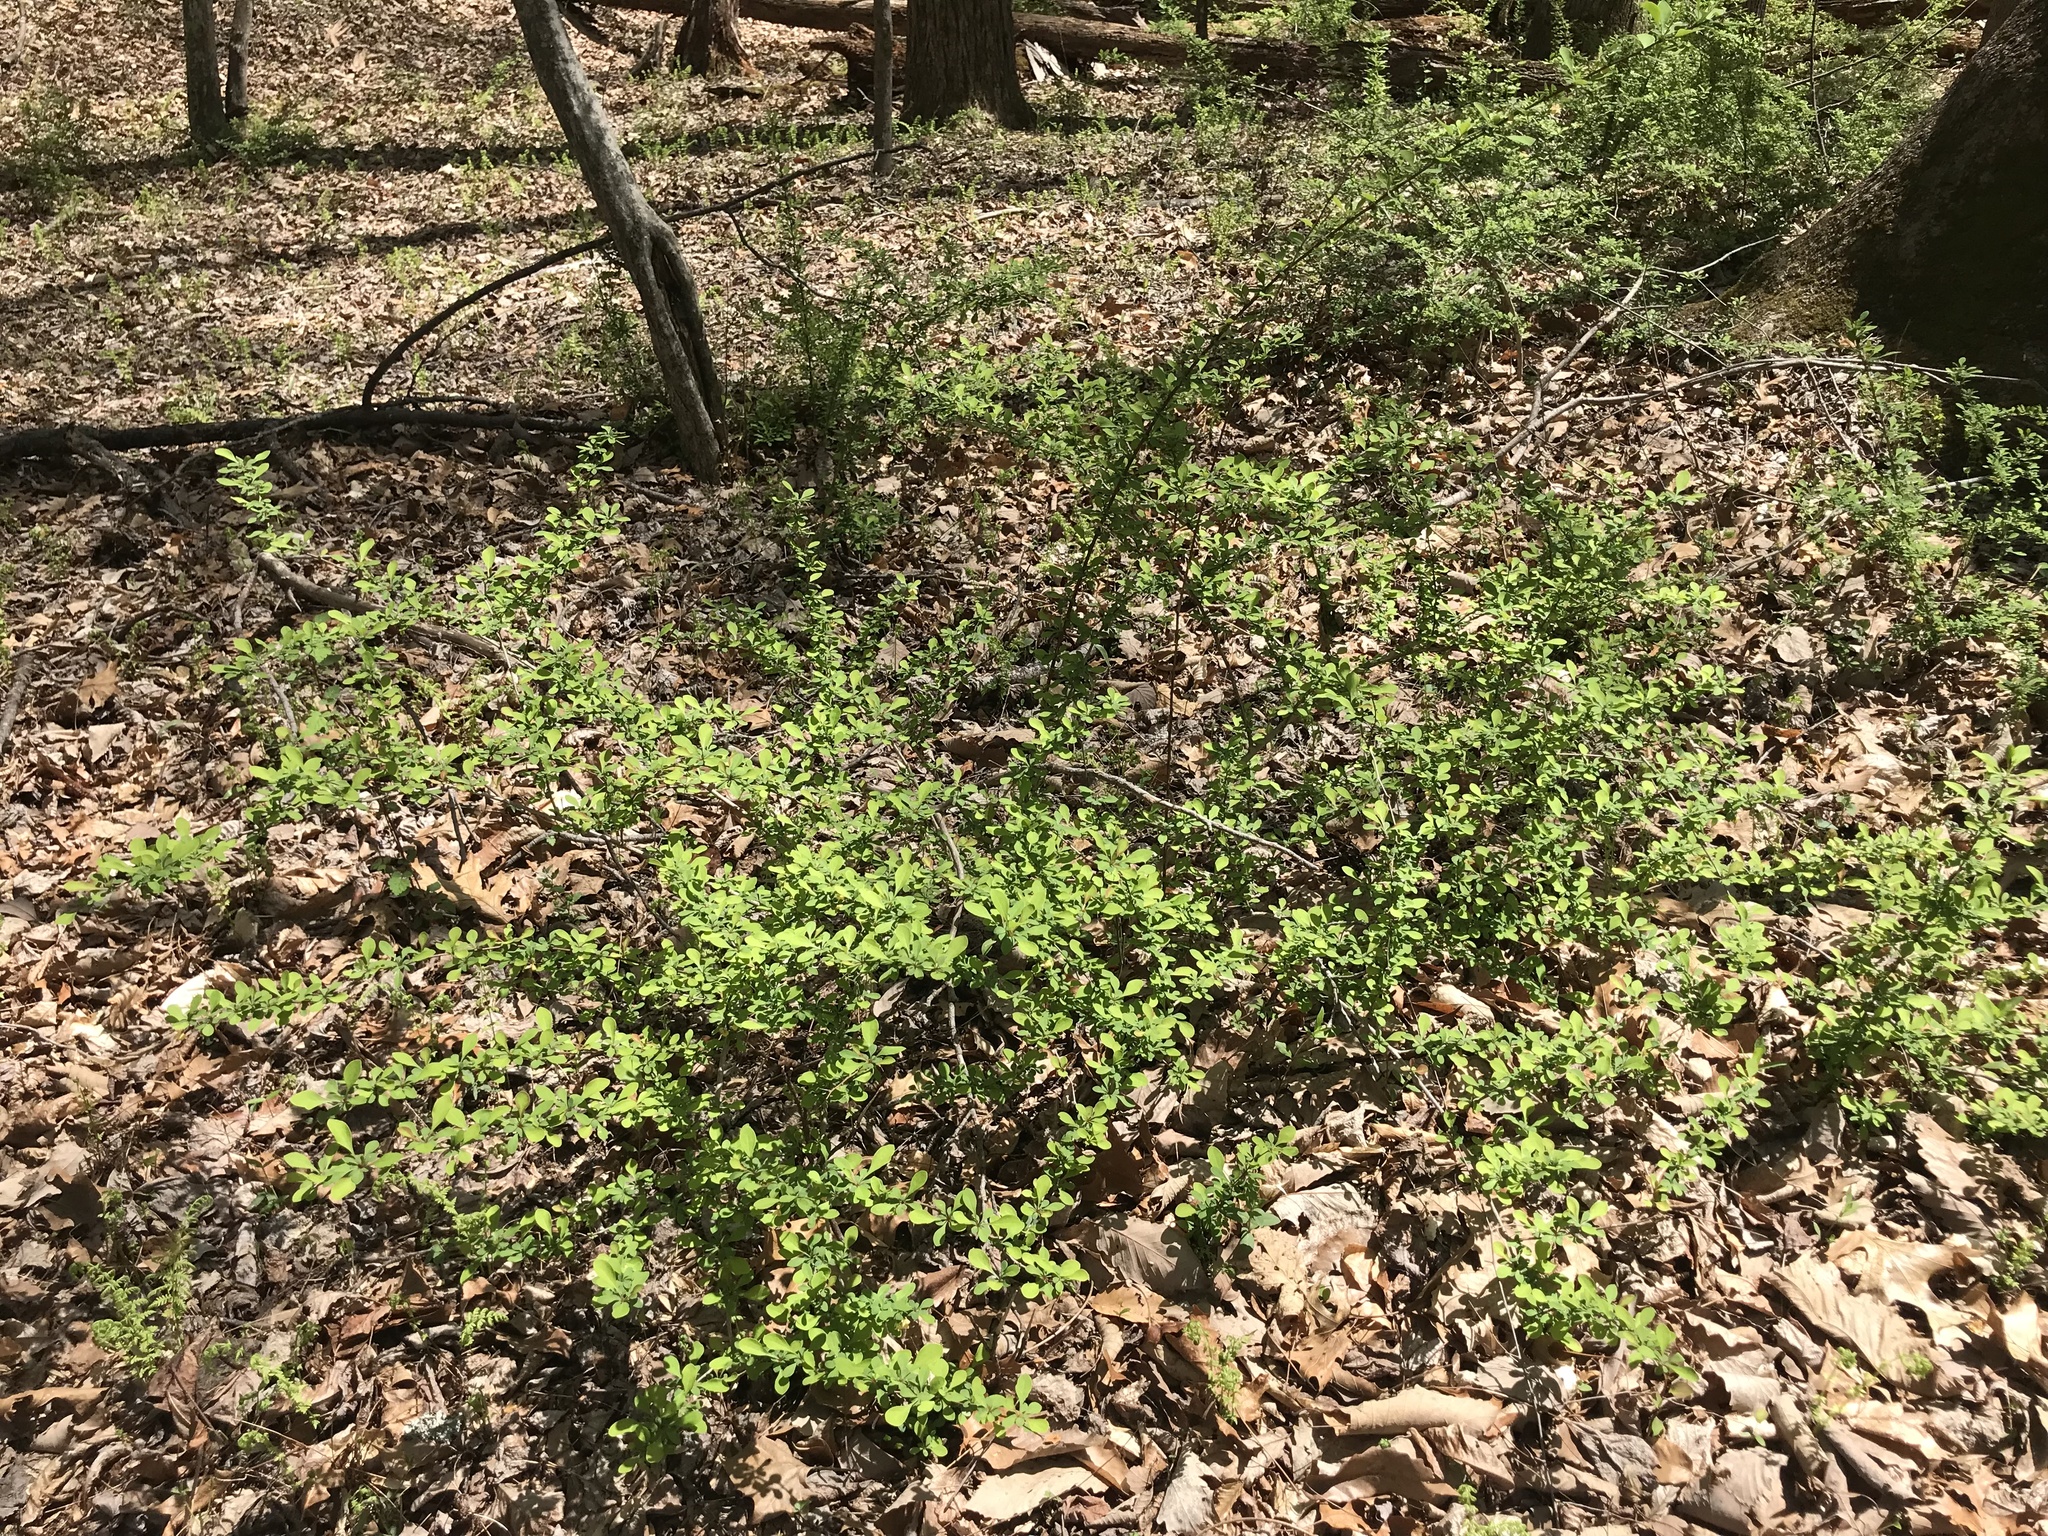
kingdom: Plantae
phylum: Tracheophyta
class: Magnoliopsida
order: Ranunculales
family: Berberidaceae
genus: Berberis
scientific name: Berberis thunbergii
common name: Japanese barberry
